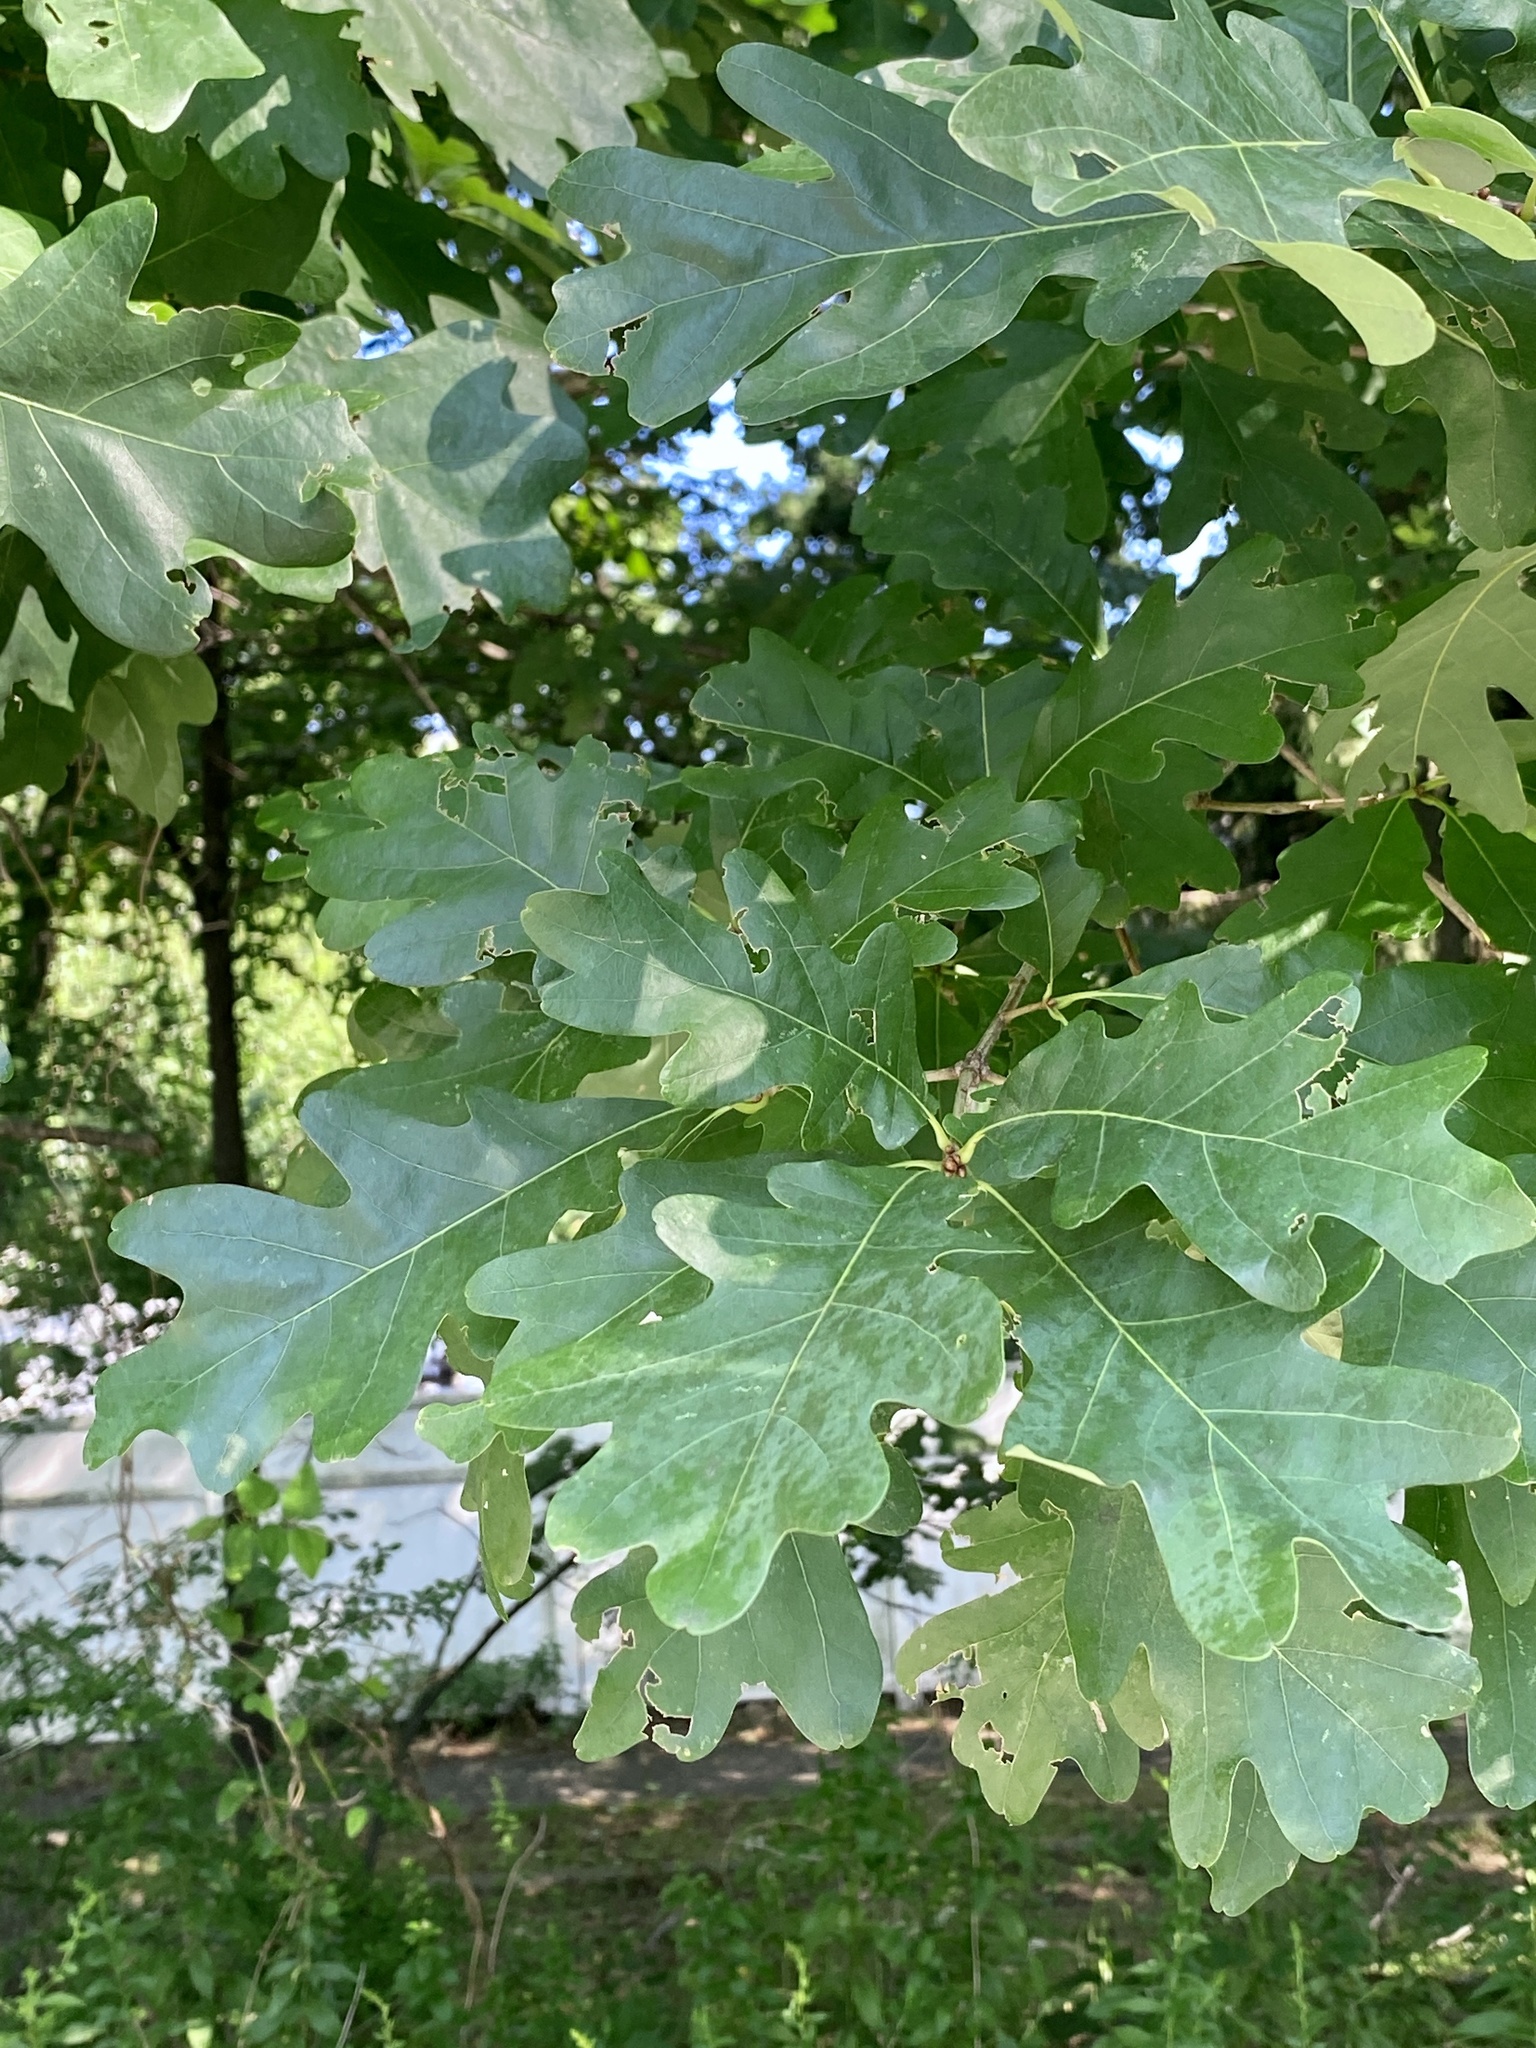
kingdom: Plantae
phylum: Tracheophyta
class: Magnoliopsida
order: Fagales
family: Fagaceae
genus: Quercus
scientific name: Quercus alba
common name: White oak
